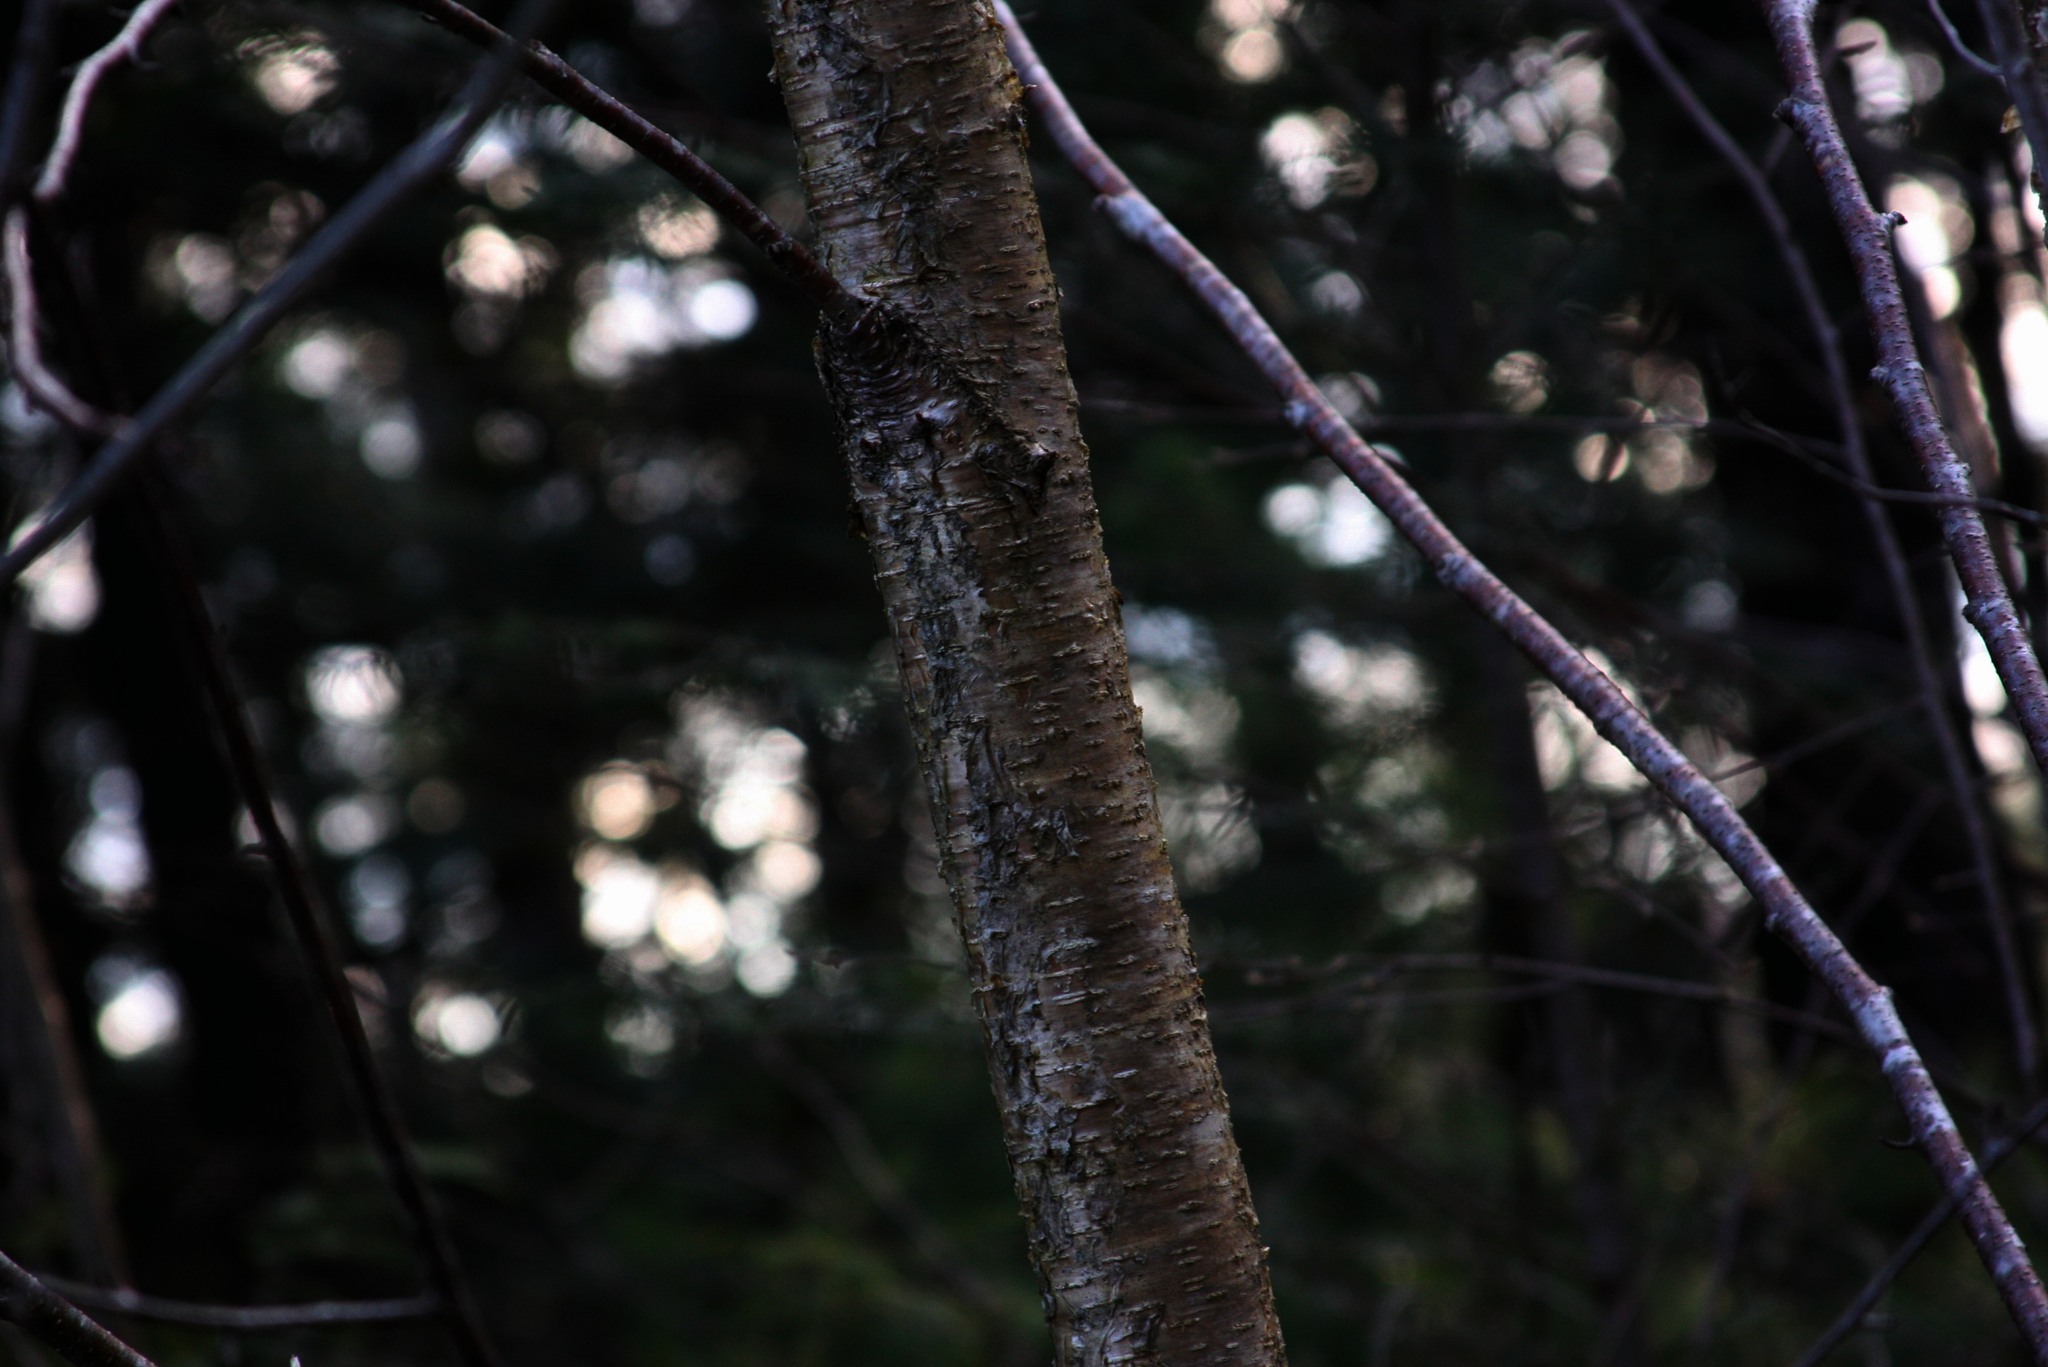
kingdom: Plantae
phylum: Tracheophyta
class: Magnoliopsida
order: Fagales
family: Betulaceae
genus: Betula
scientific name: Betula alleghaniensis
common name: Yellow birch
